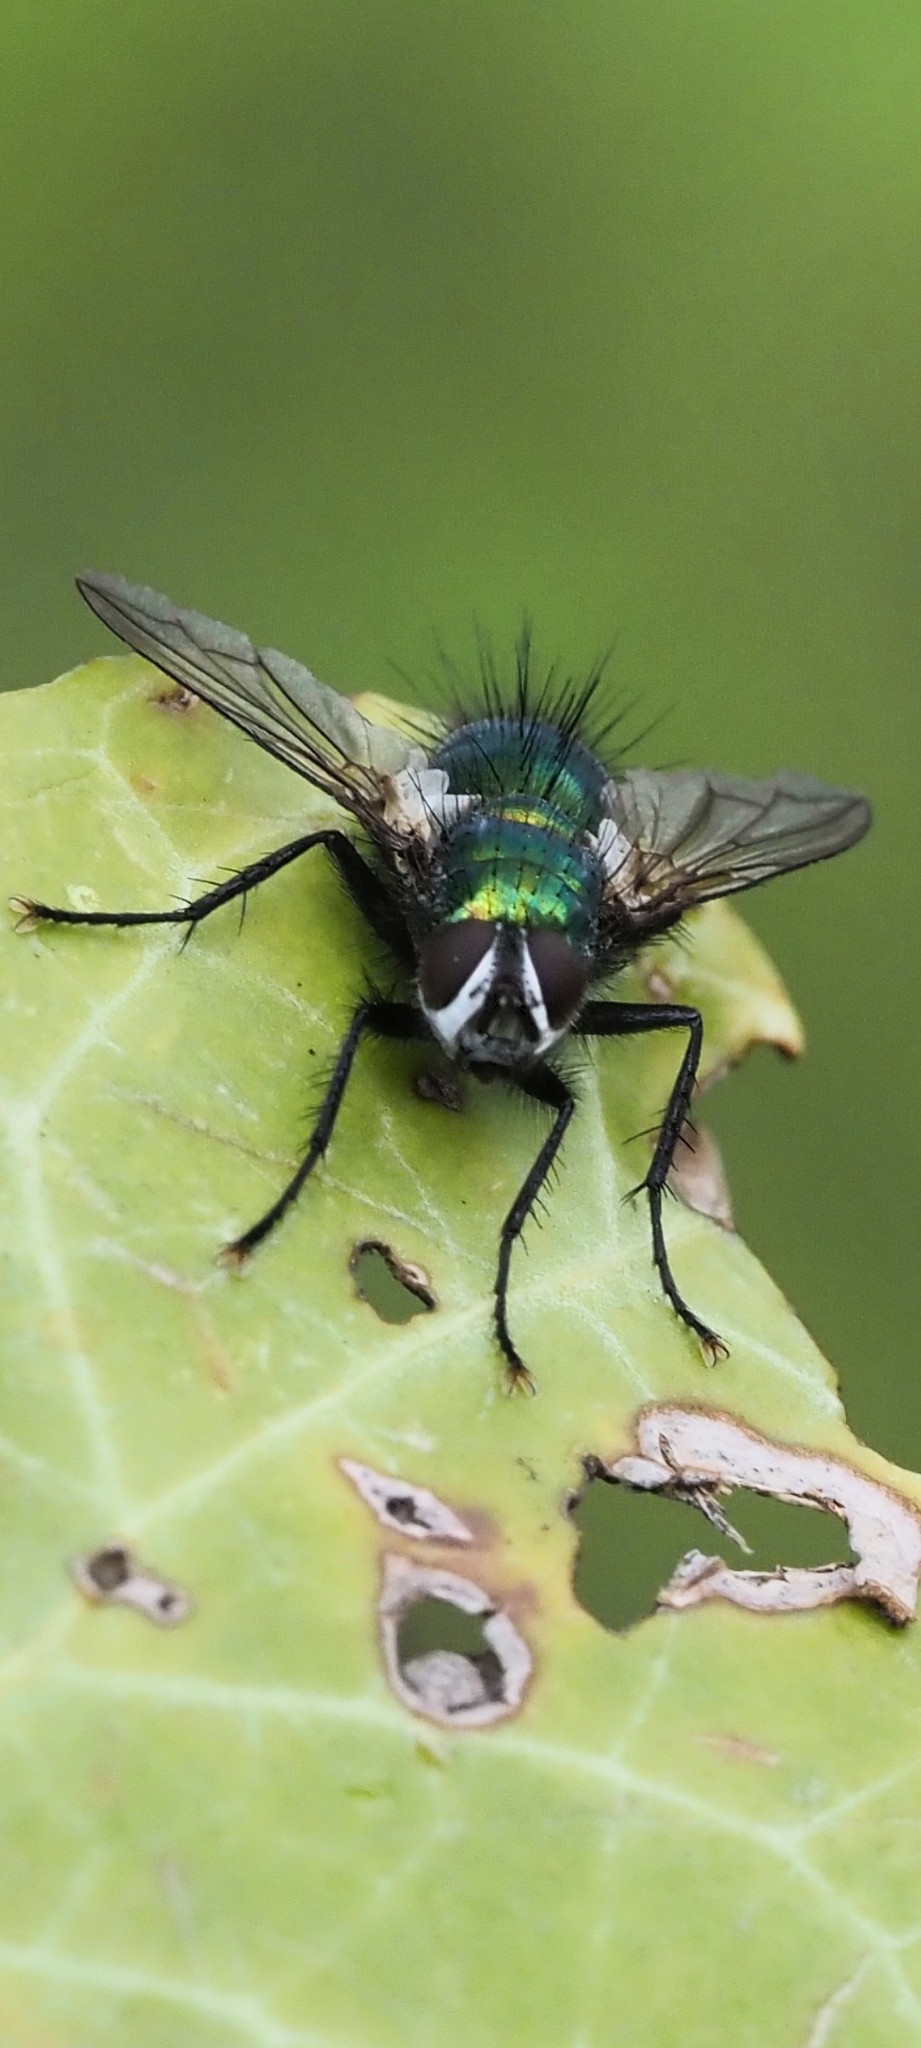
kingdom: Animalia
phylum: Arthropoda
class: Insecta
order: Diptera
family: Tachinidae
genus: Gymnocheta
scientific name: Gymnocheta viridis
